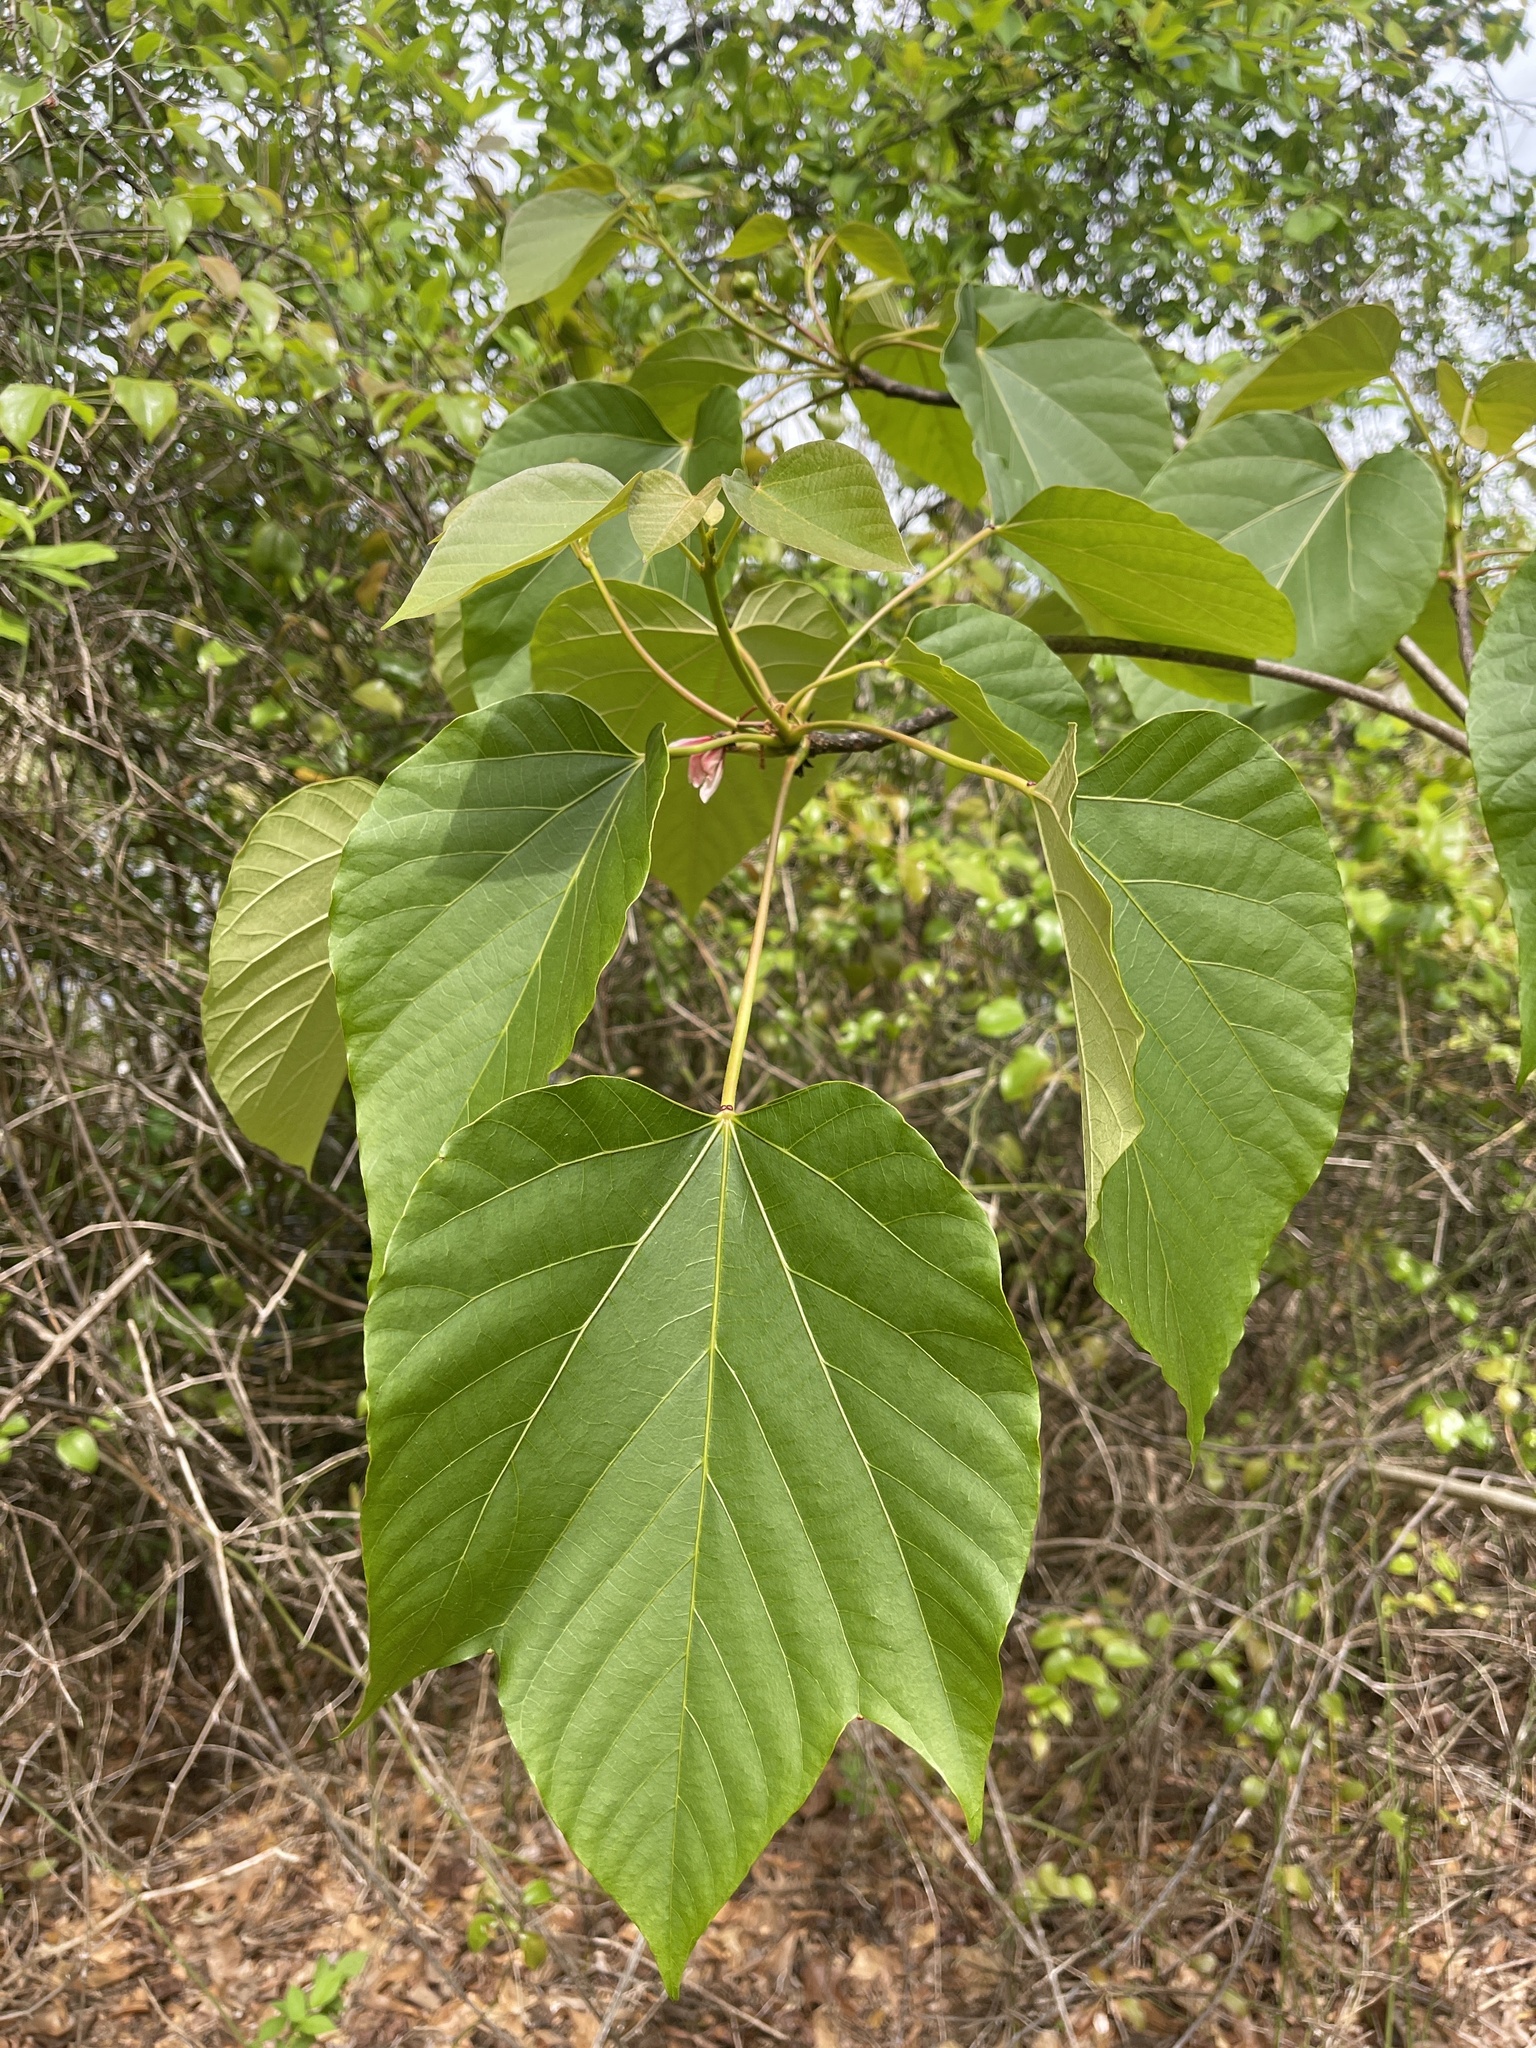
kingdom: Plantae
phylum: Tracheophyta
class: Magnoliopsida
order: Malpighiales
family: Euphorbiaceae
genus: Vernicia
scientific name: Vernicia fordii
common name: Tungoil tree
